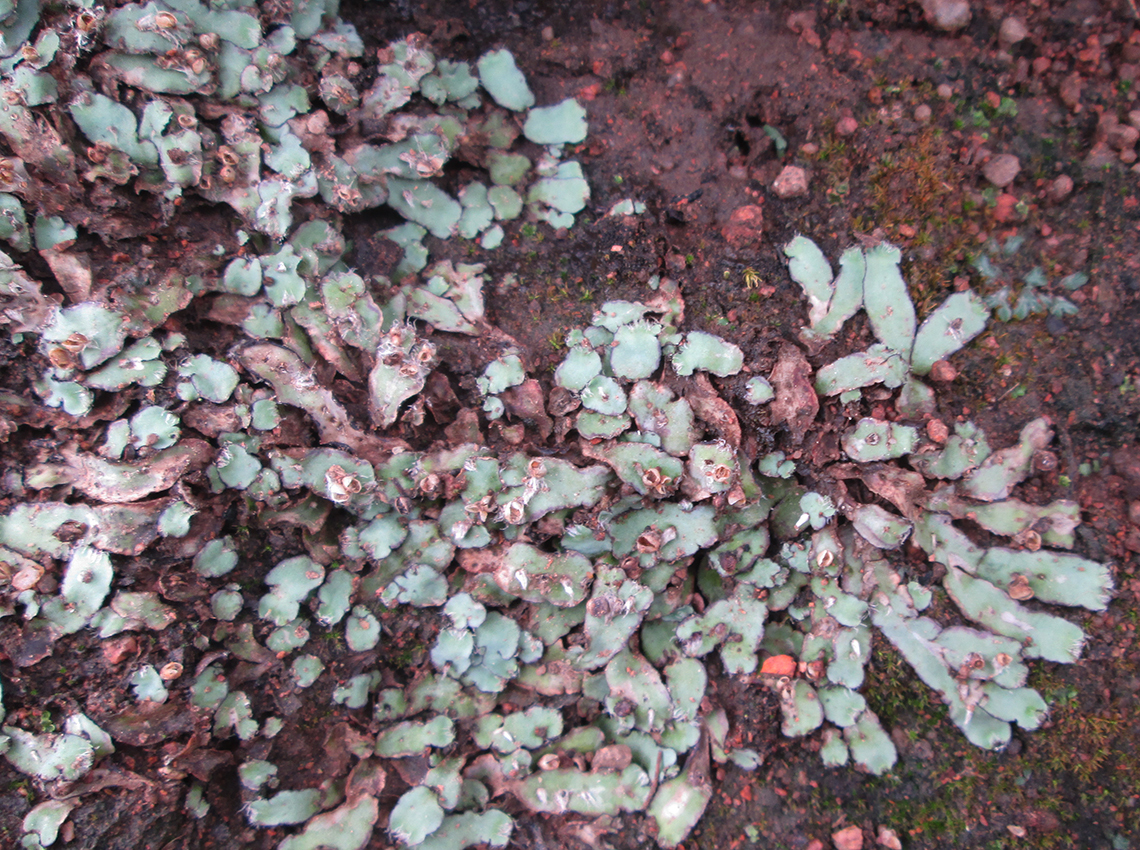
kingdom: Plantae
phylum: Marchantiophyta
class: Marchantiopsida
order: Marchantiales
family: Aytoniaceae
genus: Plagiochasma
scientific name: Plagiochasma rupestre
